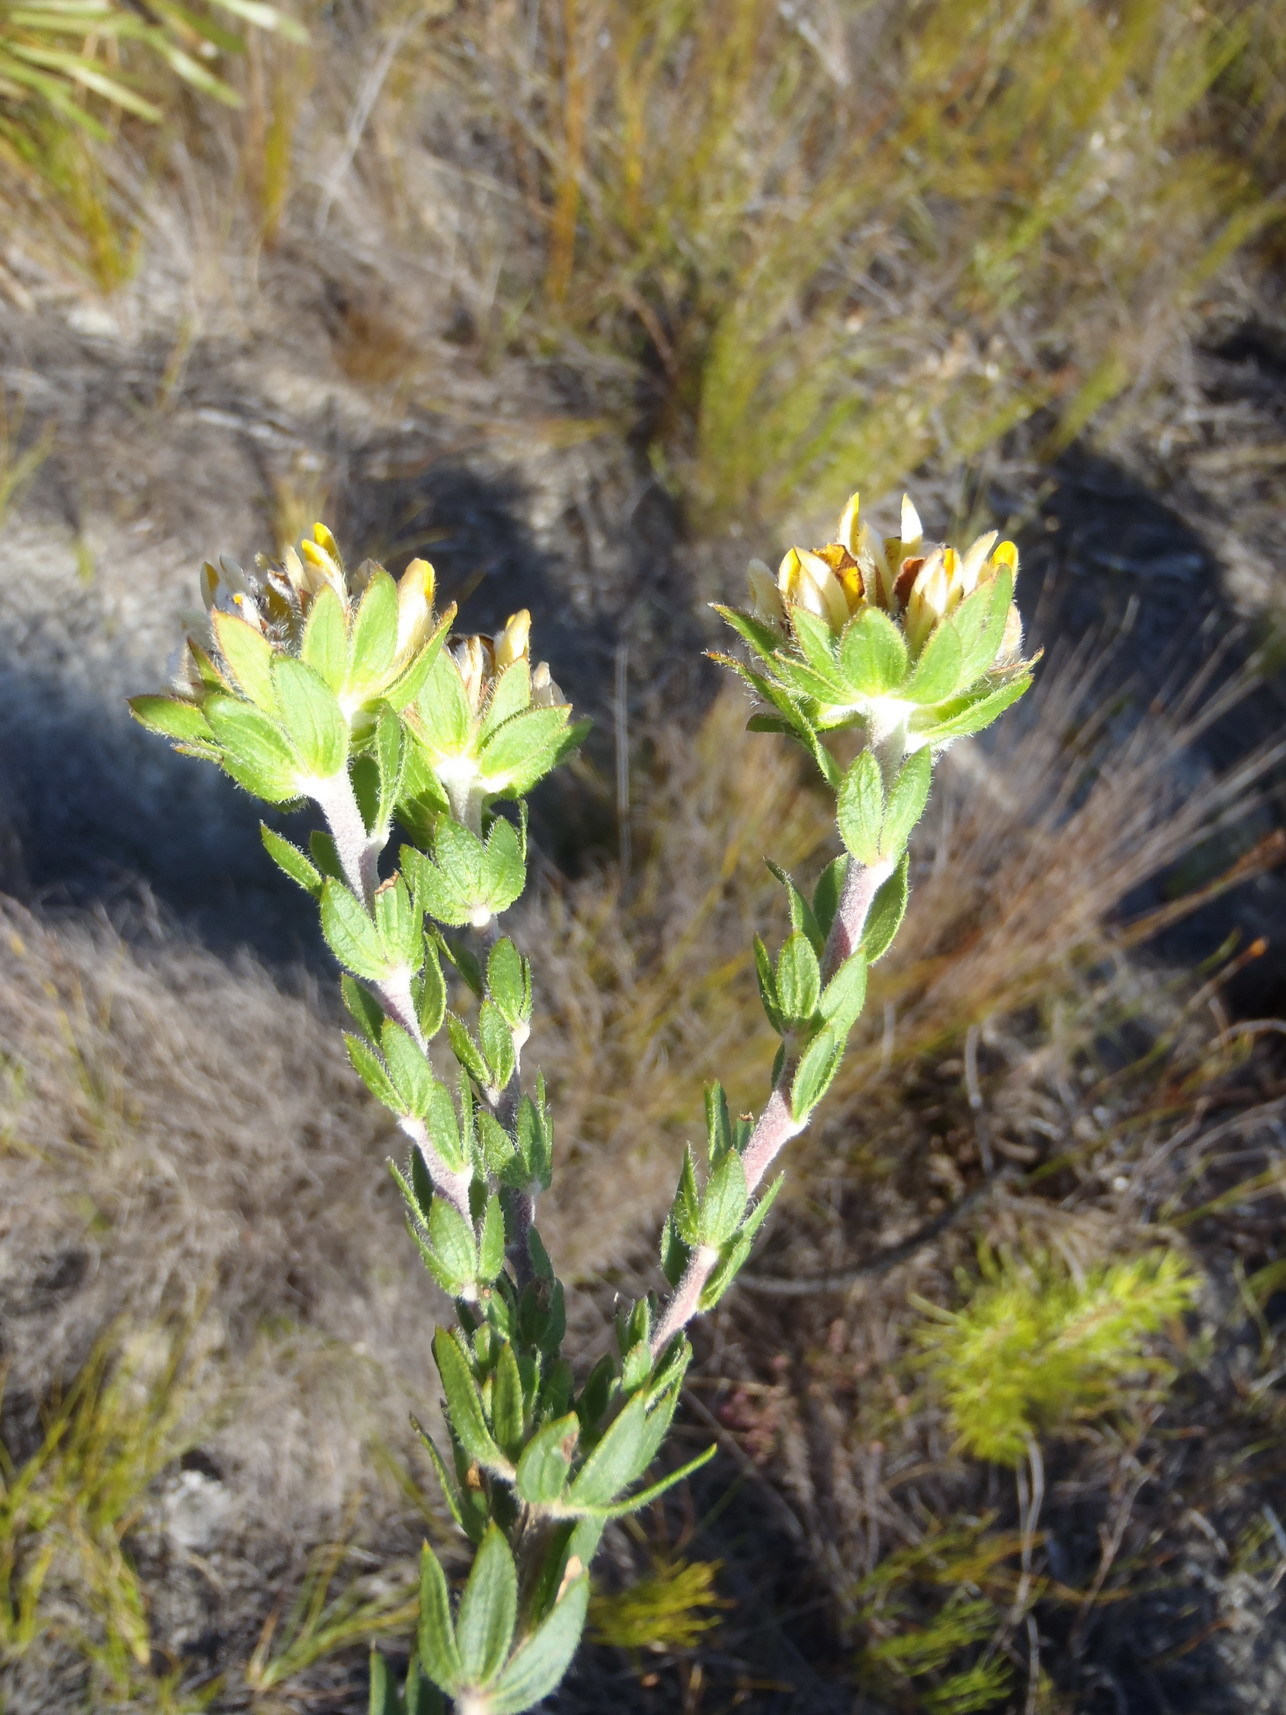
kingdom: Plantae
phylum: Tracheophyta
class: Magnoliopsida
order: Fabales
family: Fabaceae
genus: Aspalathus
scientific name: Aspalathus aspalathoides
